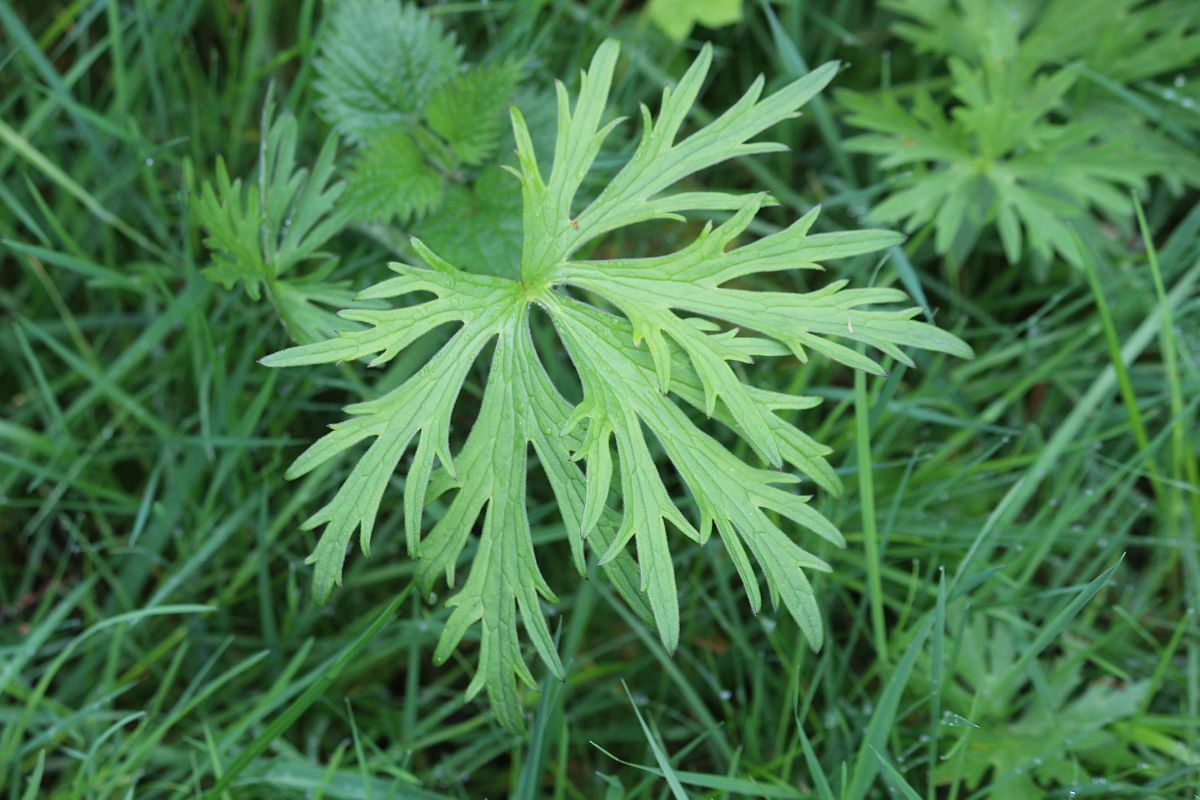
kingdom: Plantae
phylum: Tracheophyta
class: Magnoliopsida
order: Ranunculales
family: Ranunculaceae
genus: Ranunculus
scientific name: Ranunculus acris
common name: Meadow buttercup
